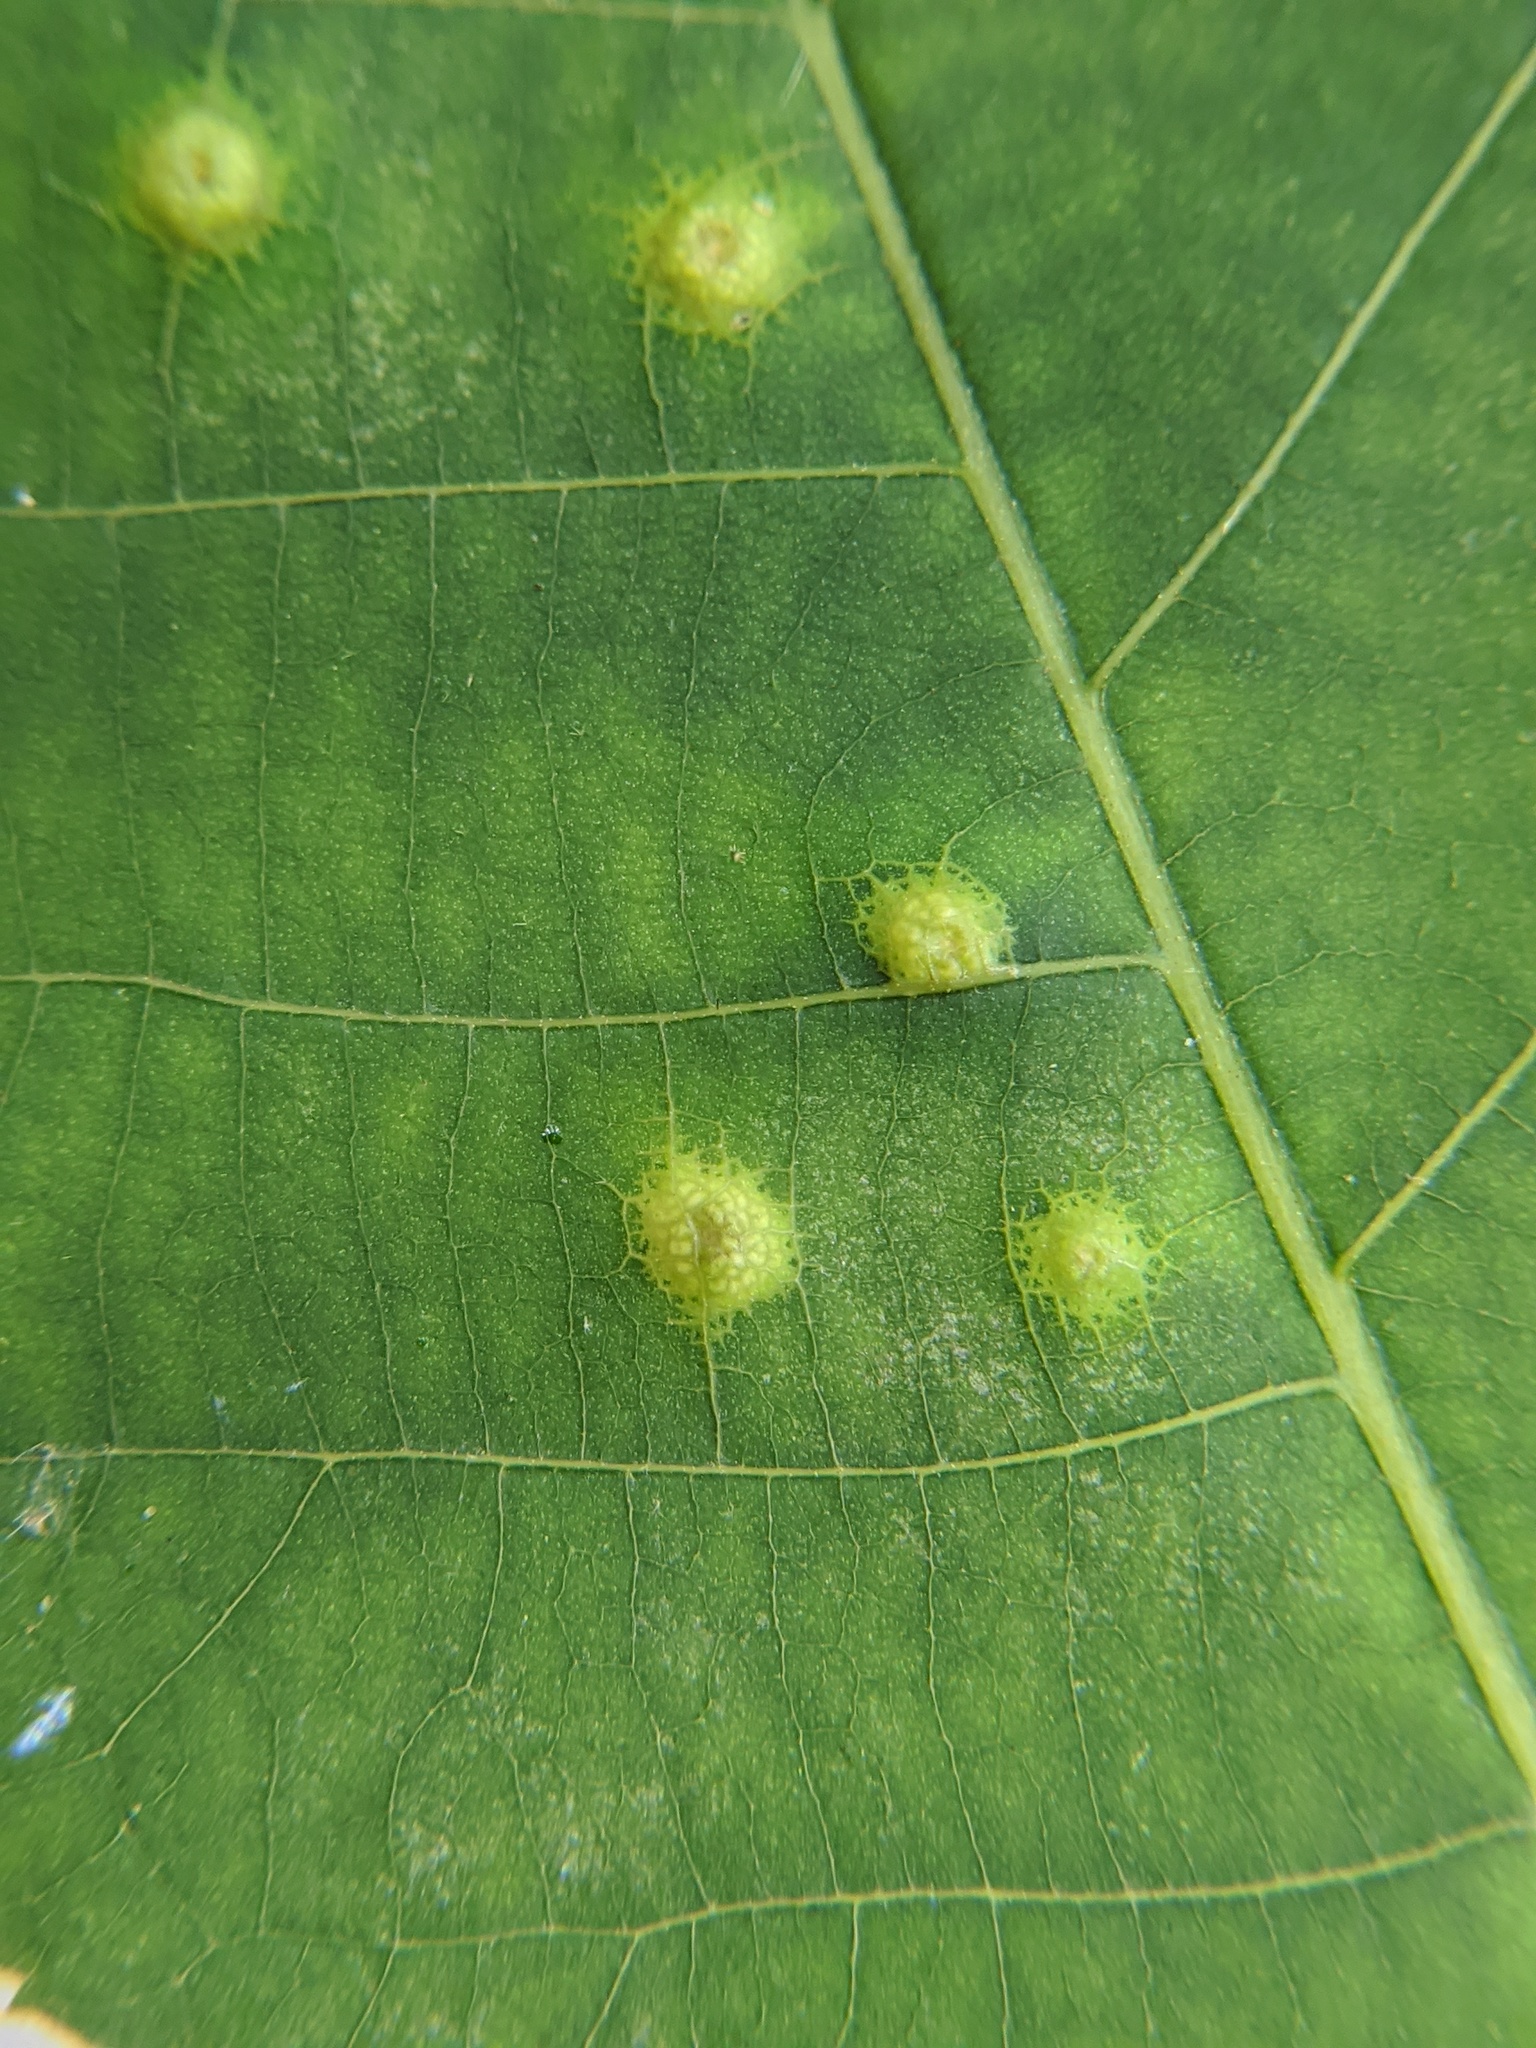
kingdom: Animalia
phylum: Arthropoda
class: Insecta
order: Diptera
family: Cecidomyiidae
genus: Caryomyia
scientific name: Caryomyia glauciglobus
